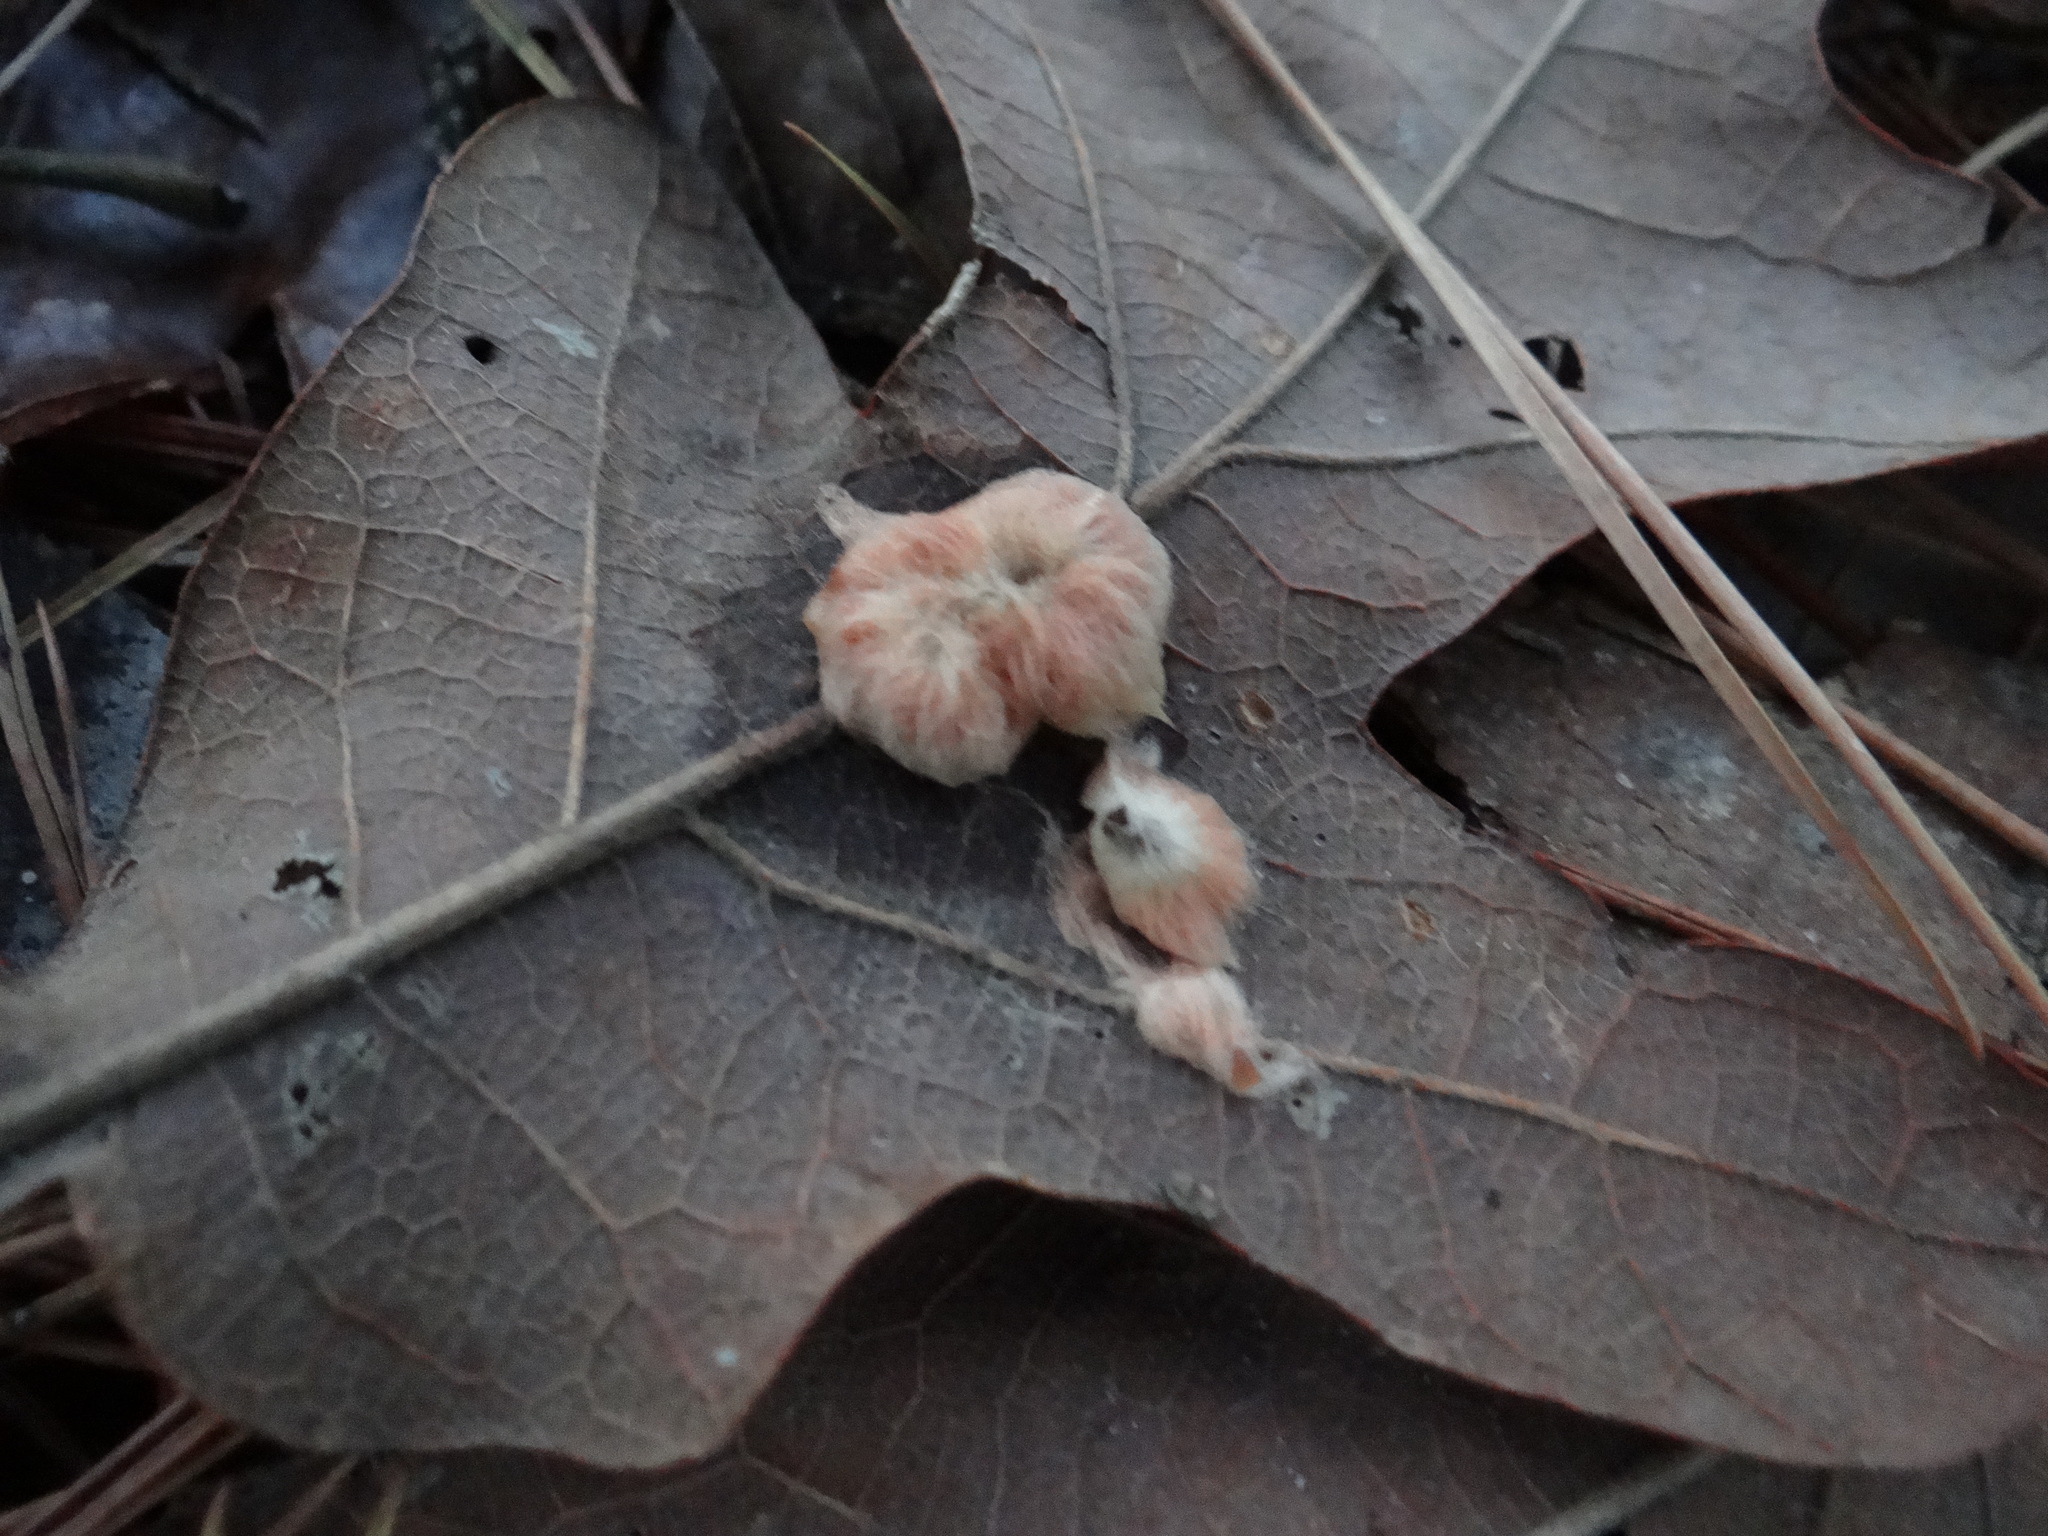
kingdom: Animalia
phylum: Arthropoda
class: Insecta
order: Hymenoptera
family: Cynipidae
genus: Andricus
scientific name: Andricus Druon pattoni
